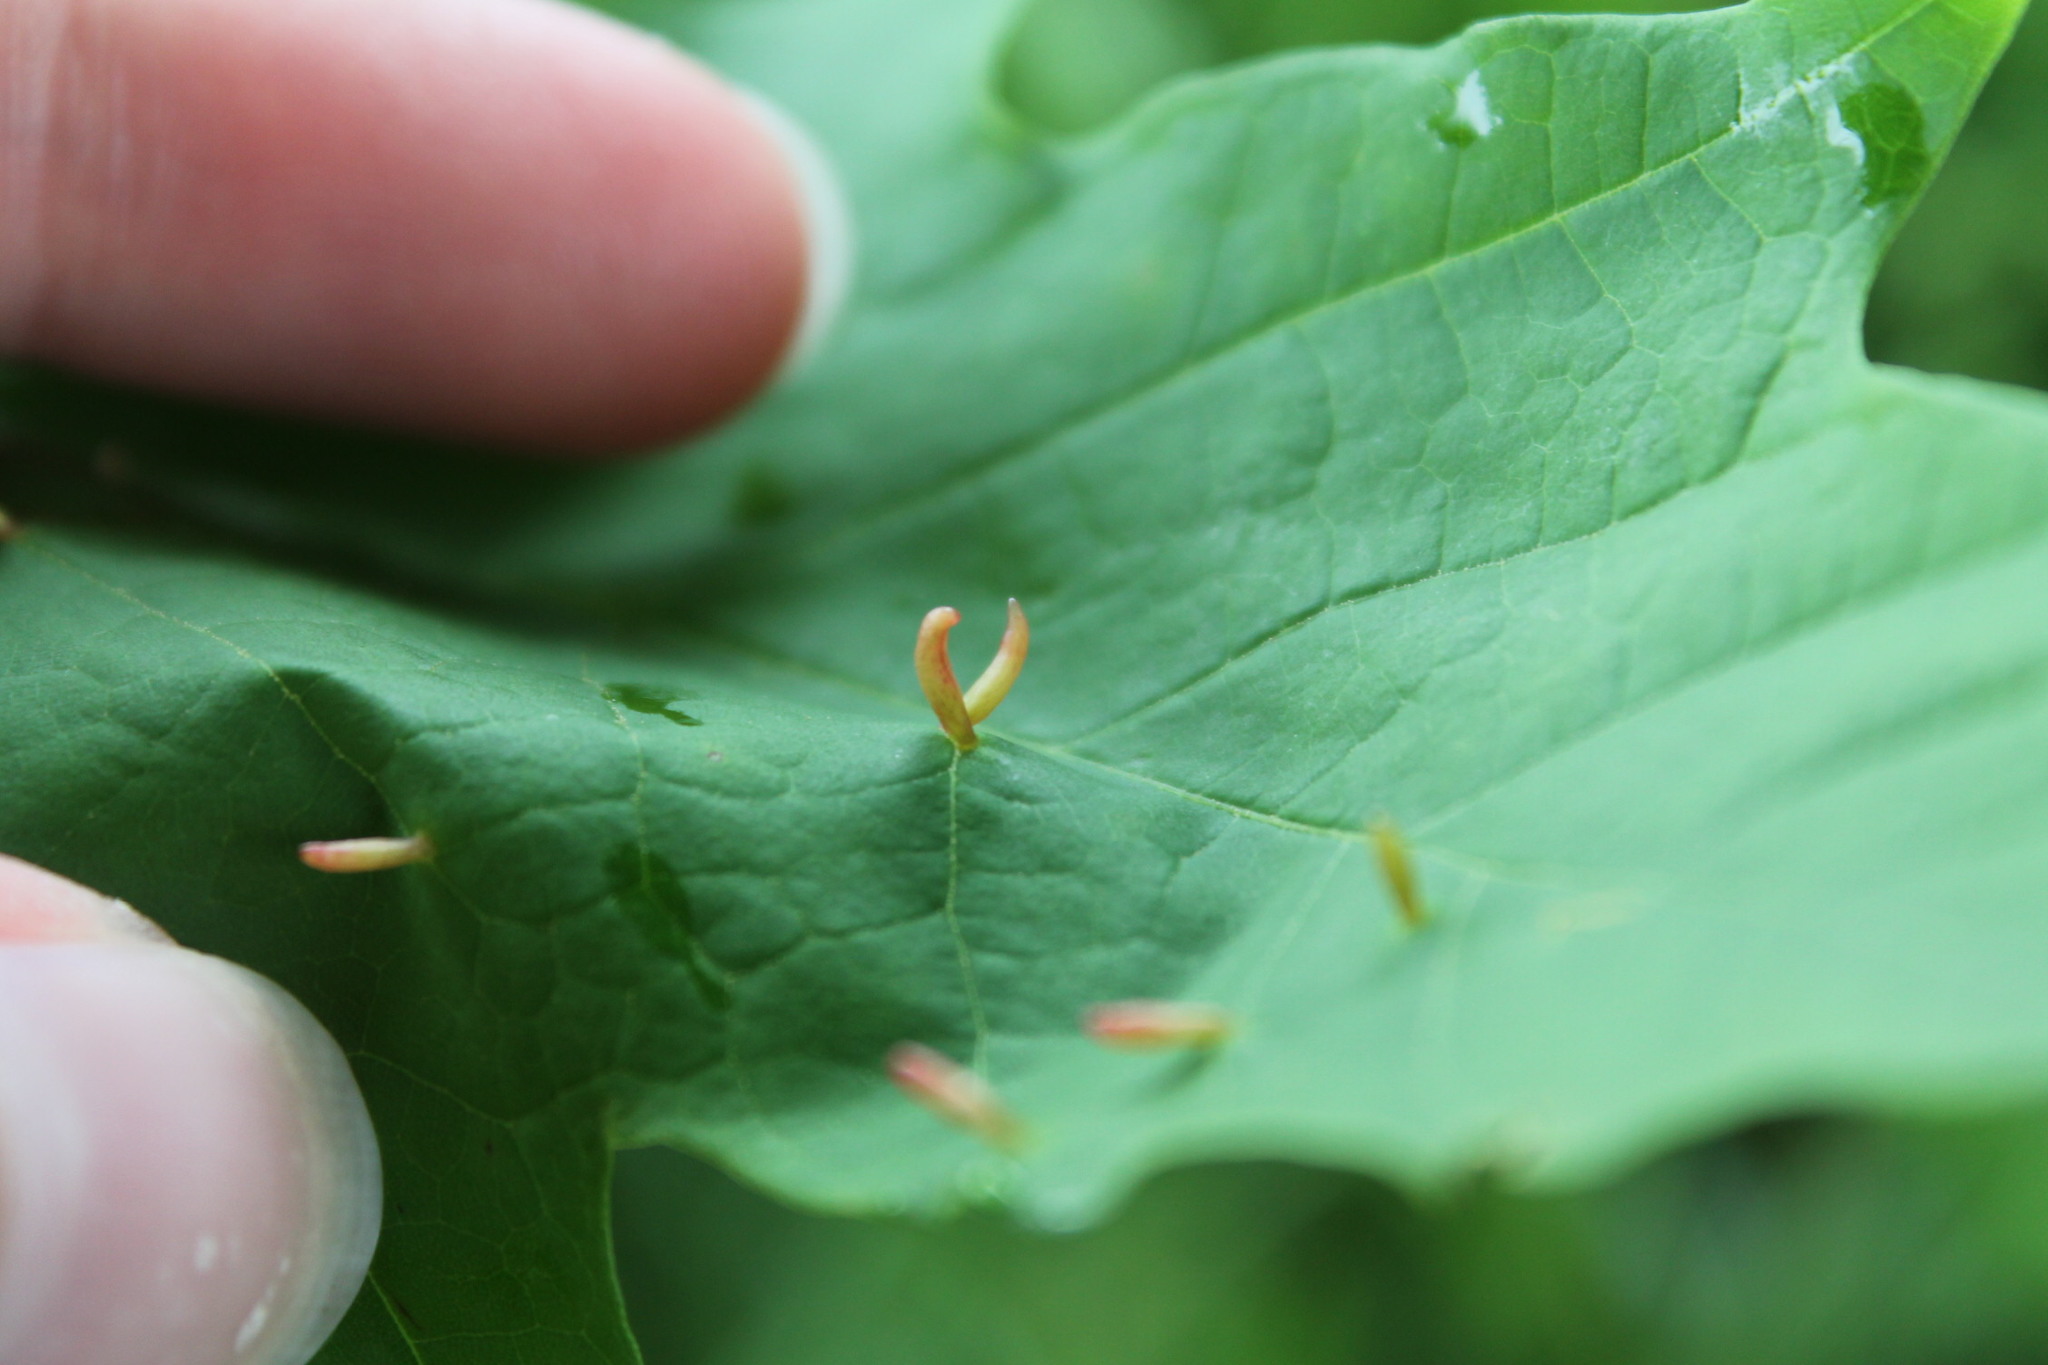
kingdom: Animalia
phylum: Arthropoda
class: Arachnida
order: Trombidiformes
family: Eriophyidae
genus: Vasates
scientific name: Vasates aceriscrumena
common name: Maple spindle gall mite
